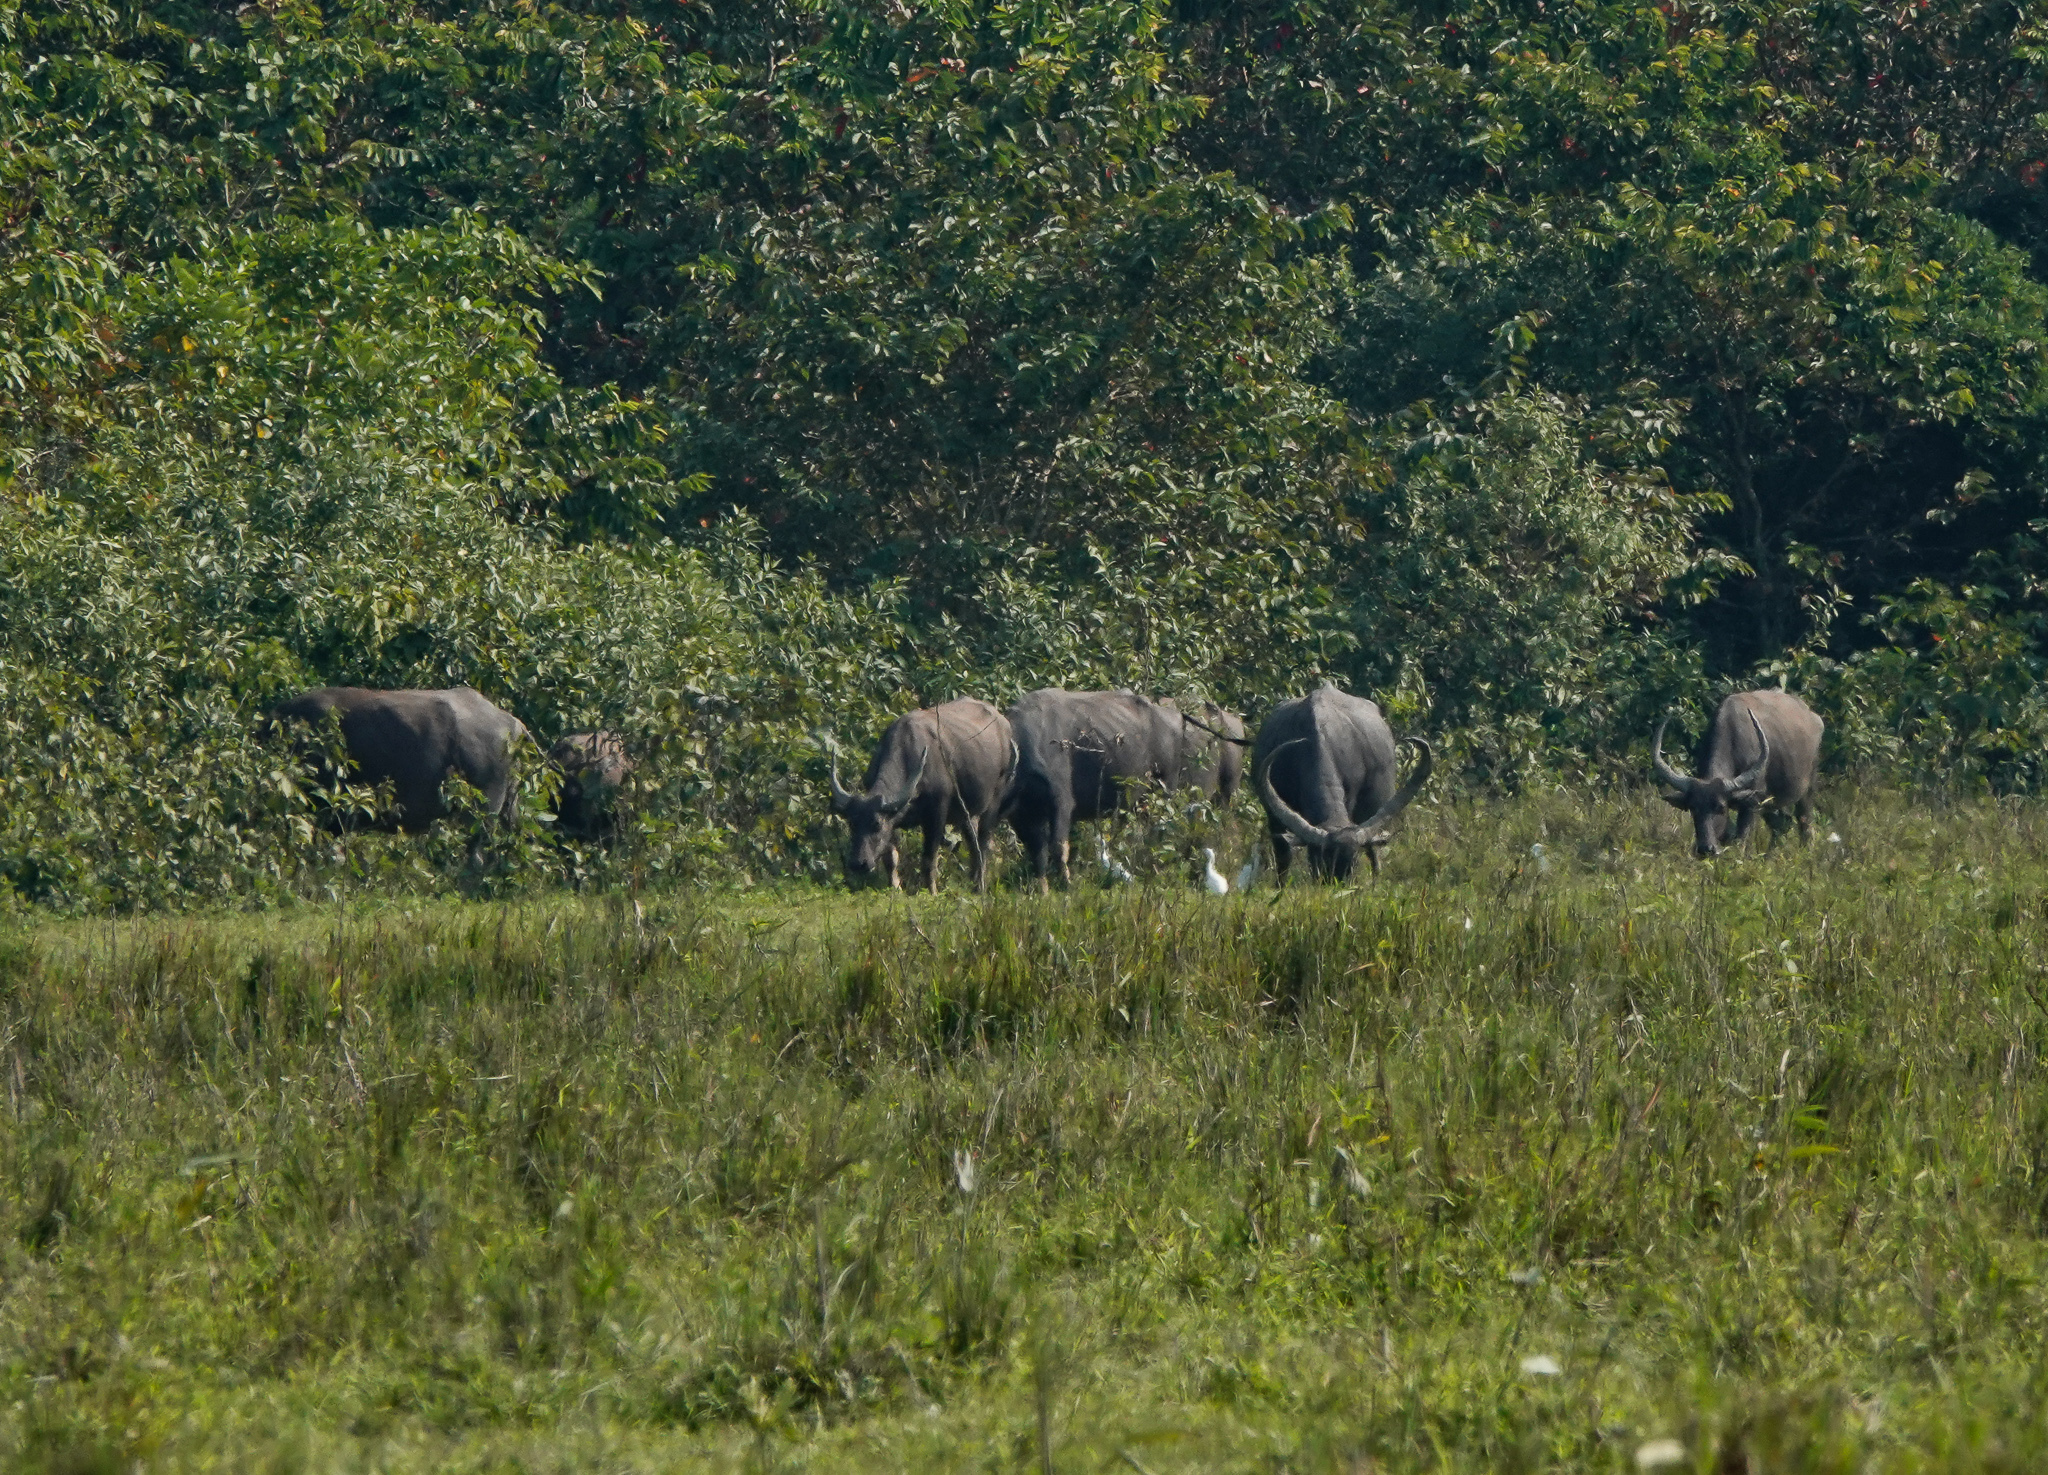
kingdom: Animalia
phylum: Chordata
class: Mammalia
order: Artiodactyla
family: Bovidae
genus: Bubalus
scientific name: Bubalus bubalis
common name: Water buffalo
